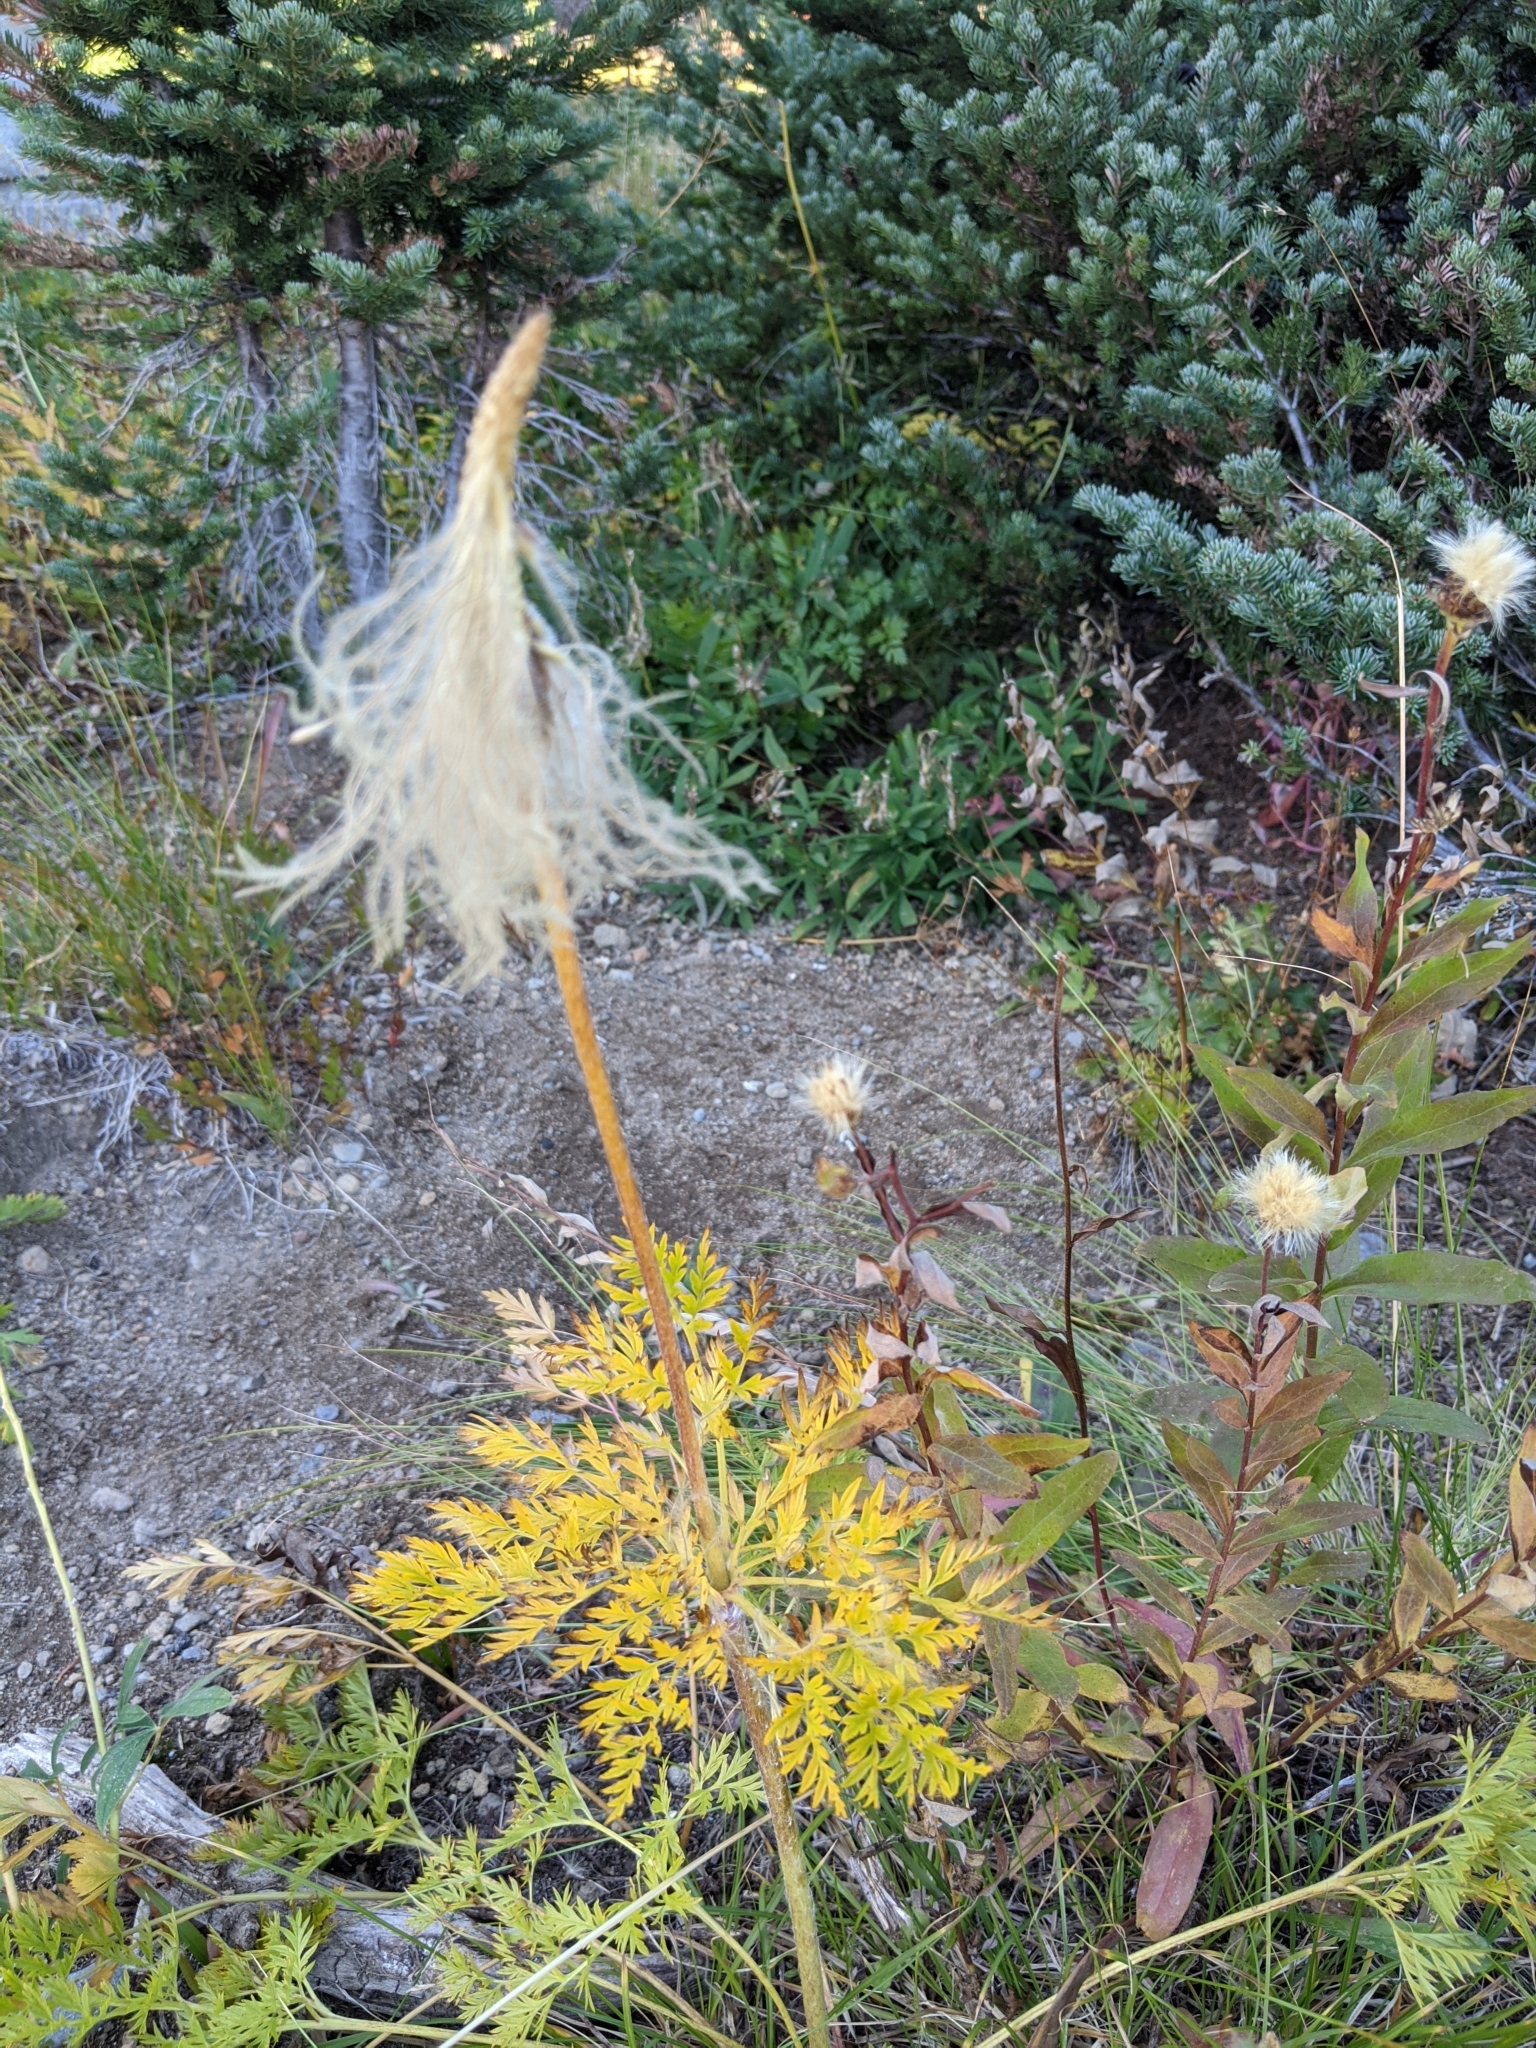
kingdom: Plantae
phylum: Tracheophyta
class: Magnoliopsida
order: Ranunculales
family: Ranunculaceae
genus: Pulsatilla
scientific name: Pulsatilla occidentalis
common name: Mountain pasqueflower
